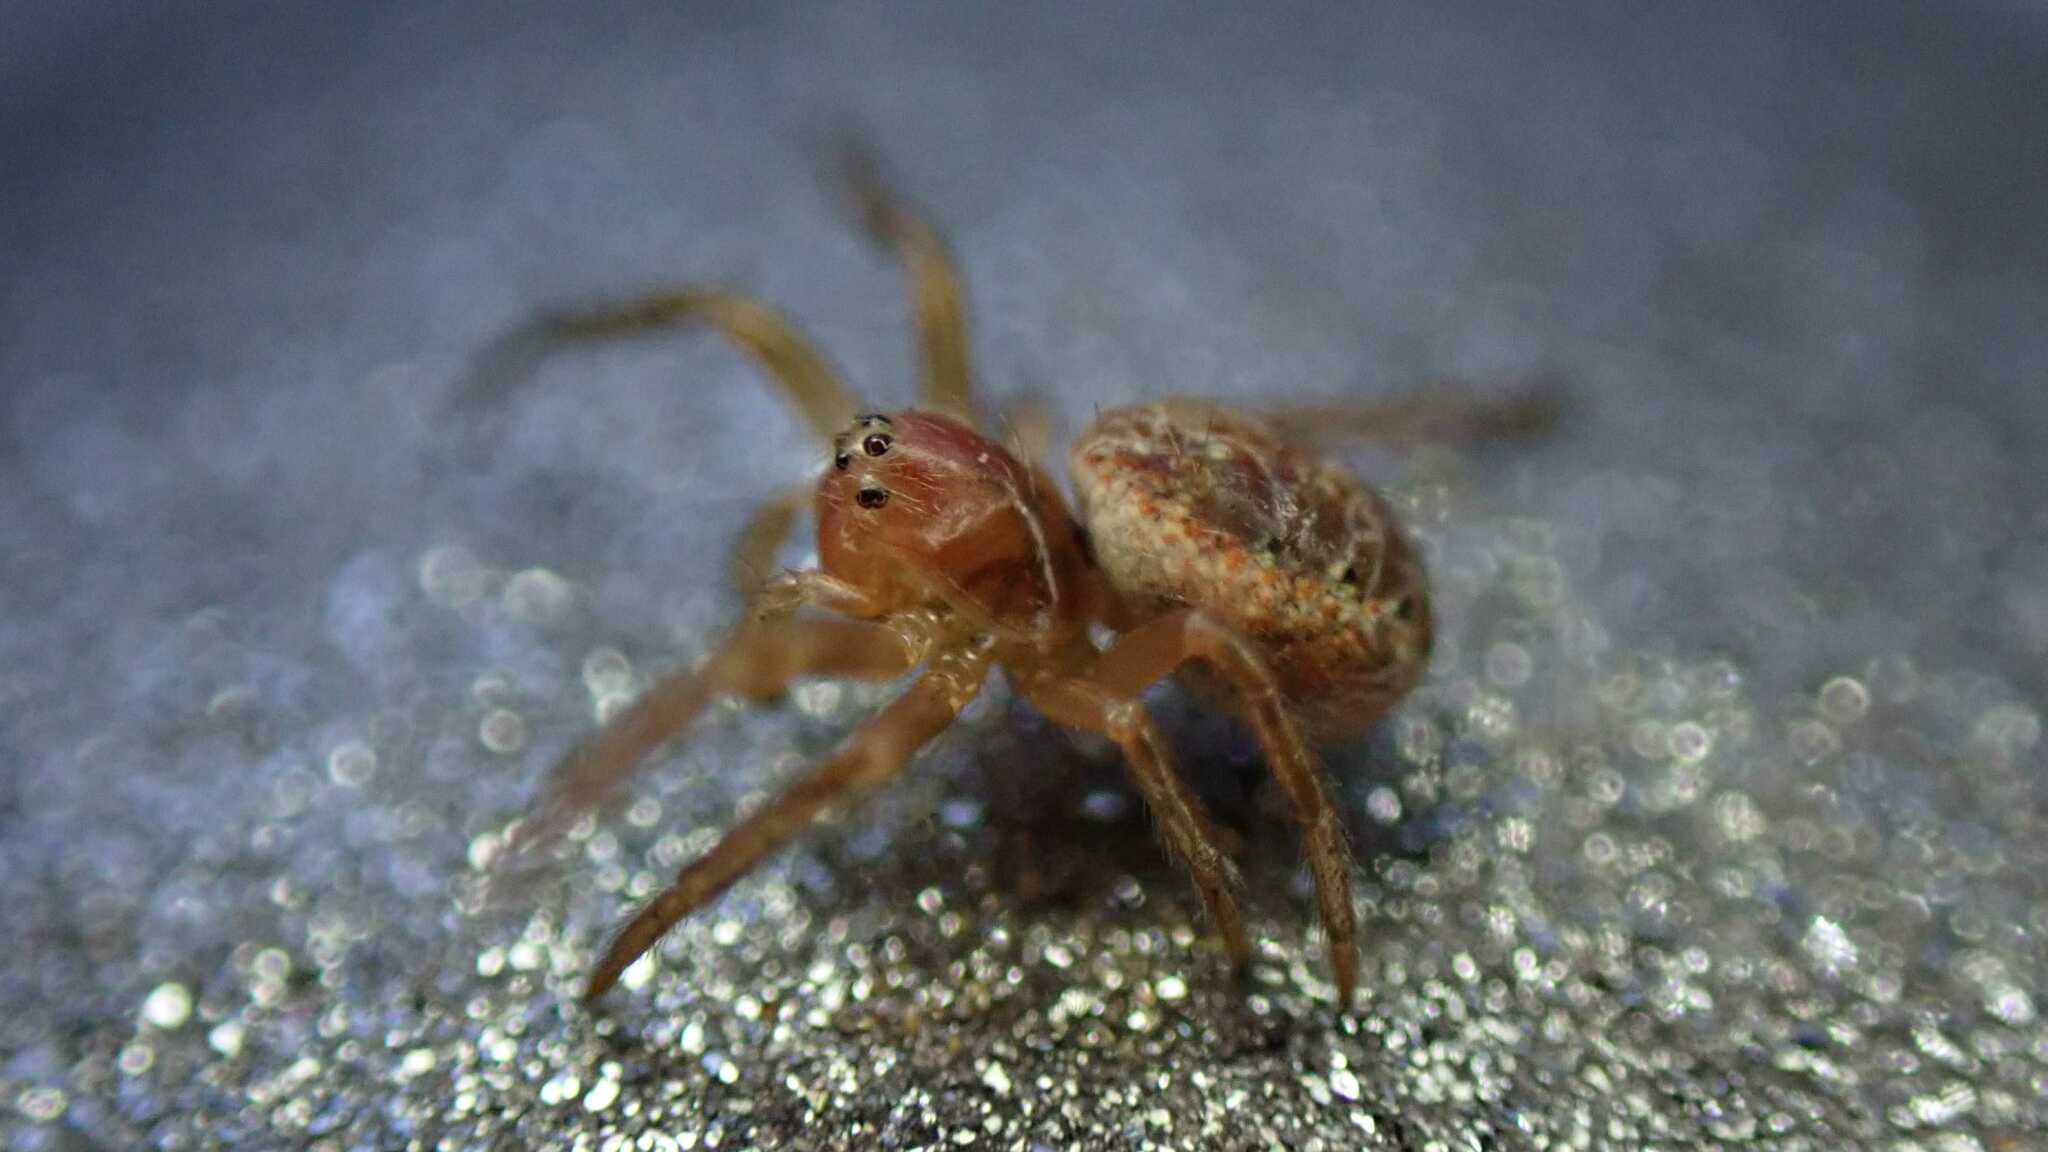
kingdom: Animalia
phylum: Arthropoda
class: Arachnida
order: Araneae
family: Araneidae
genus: Araniella
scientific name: Araniella
